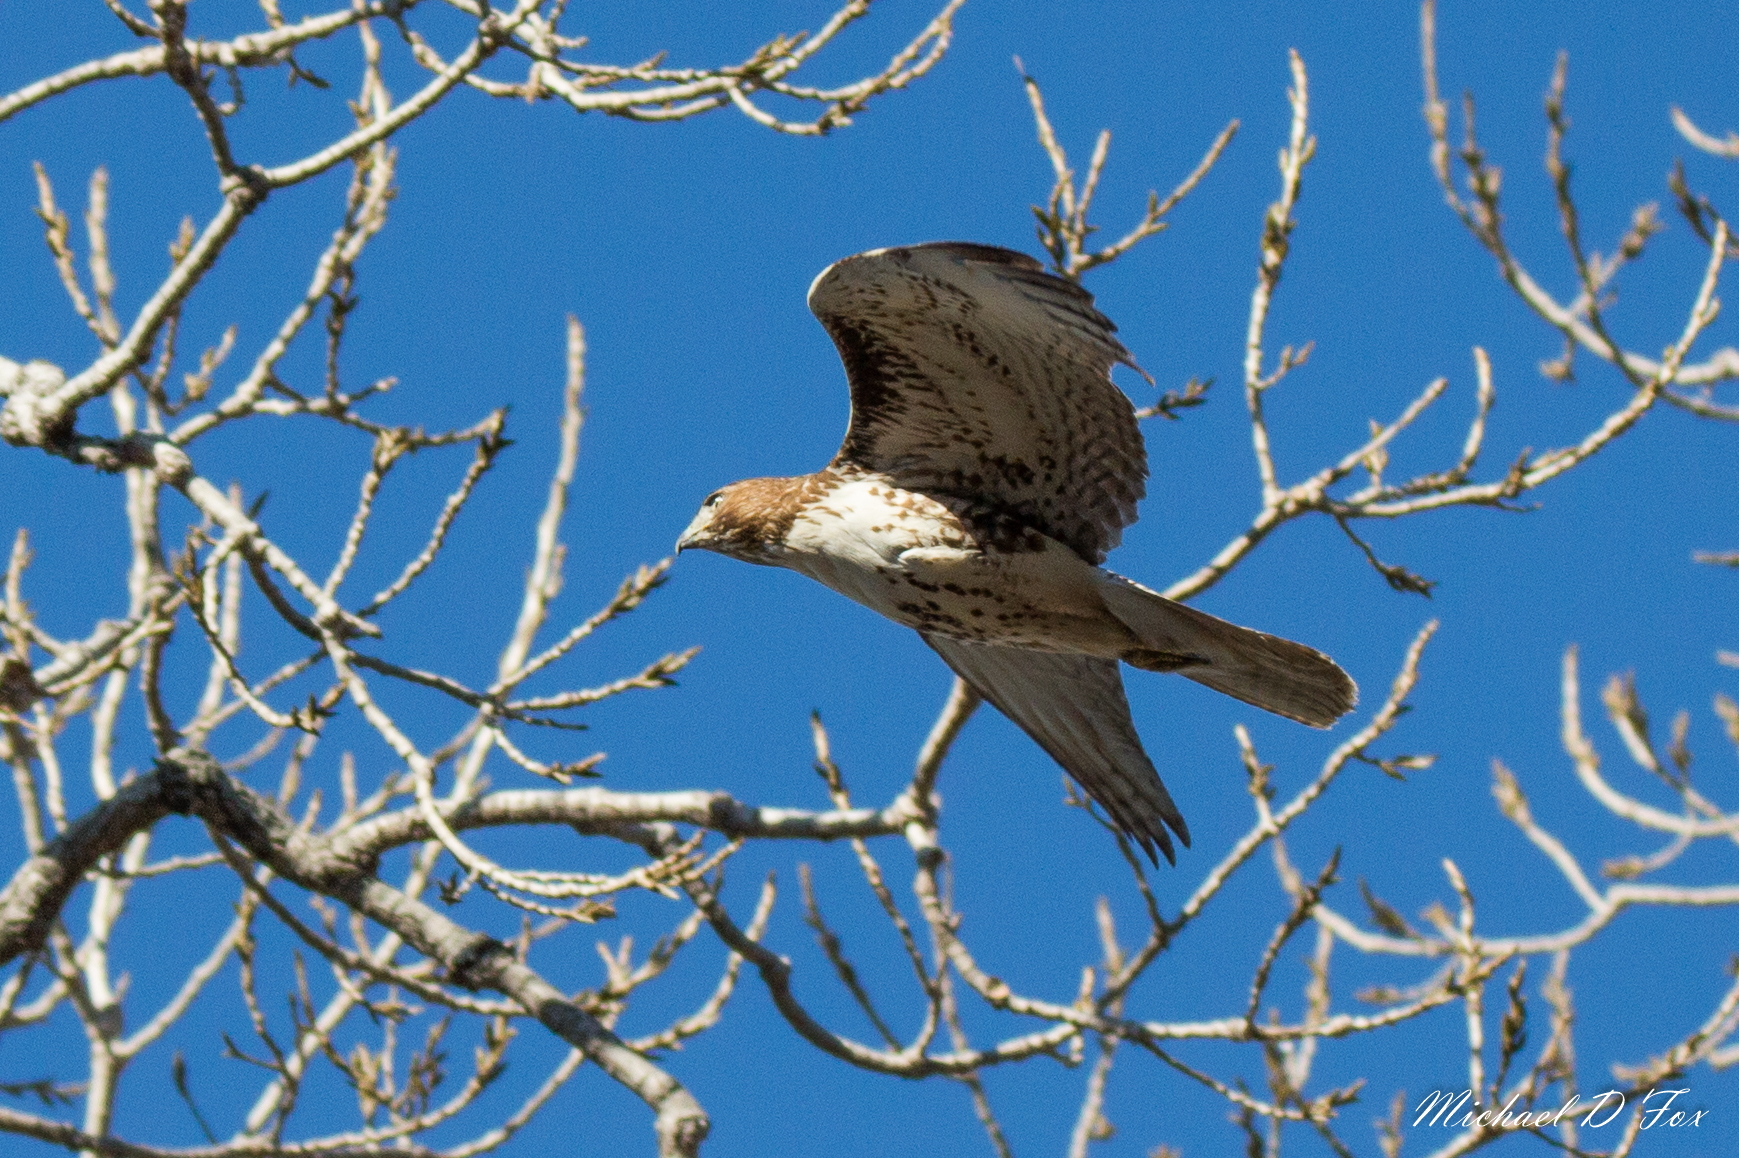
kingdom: Animalia
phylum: Chordata
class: Aves
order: Accipitriformes
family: Accipitridae
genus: Buteo
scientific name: Buteo jamaicensis
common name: Red-tailed hawk
